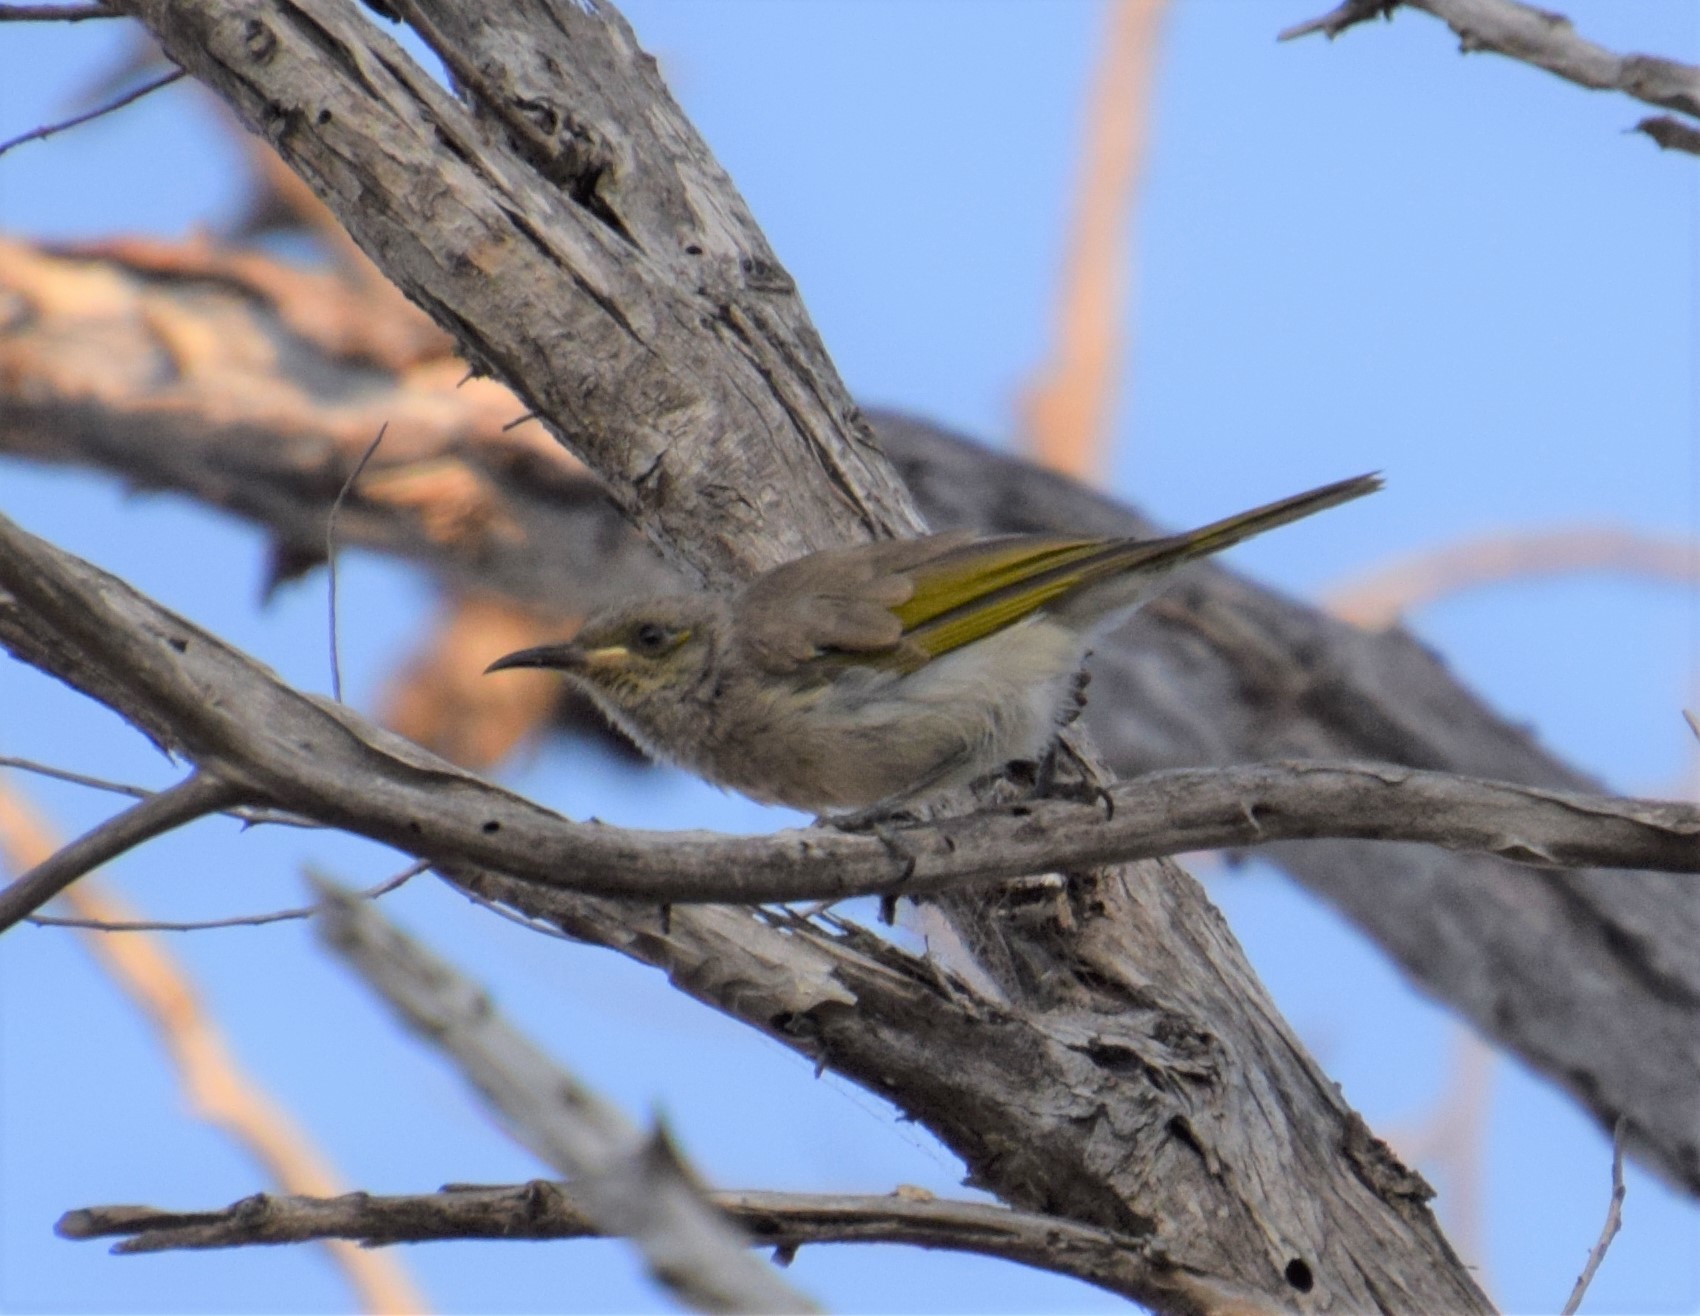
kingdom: Animalia
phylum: Chordata
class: Aves
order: Passeriformes
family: Meliphagidae
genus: Lichmera
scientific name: Lichmera indistincta
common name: Brown honeyeater
